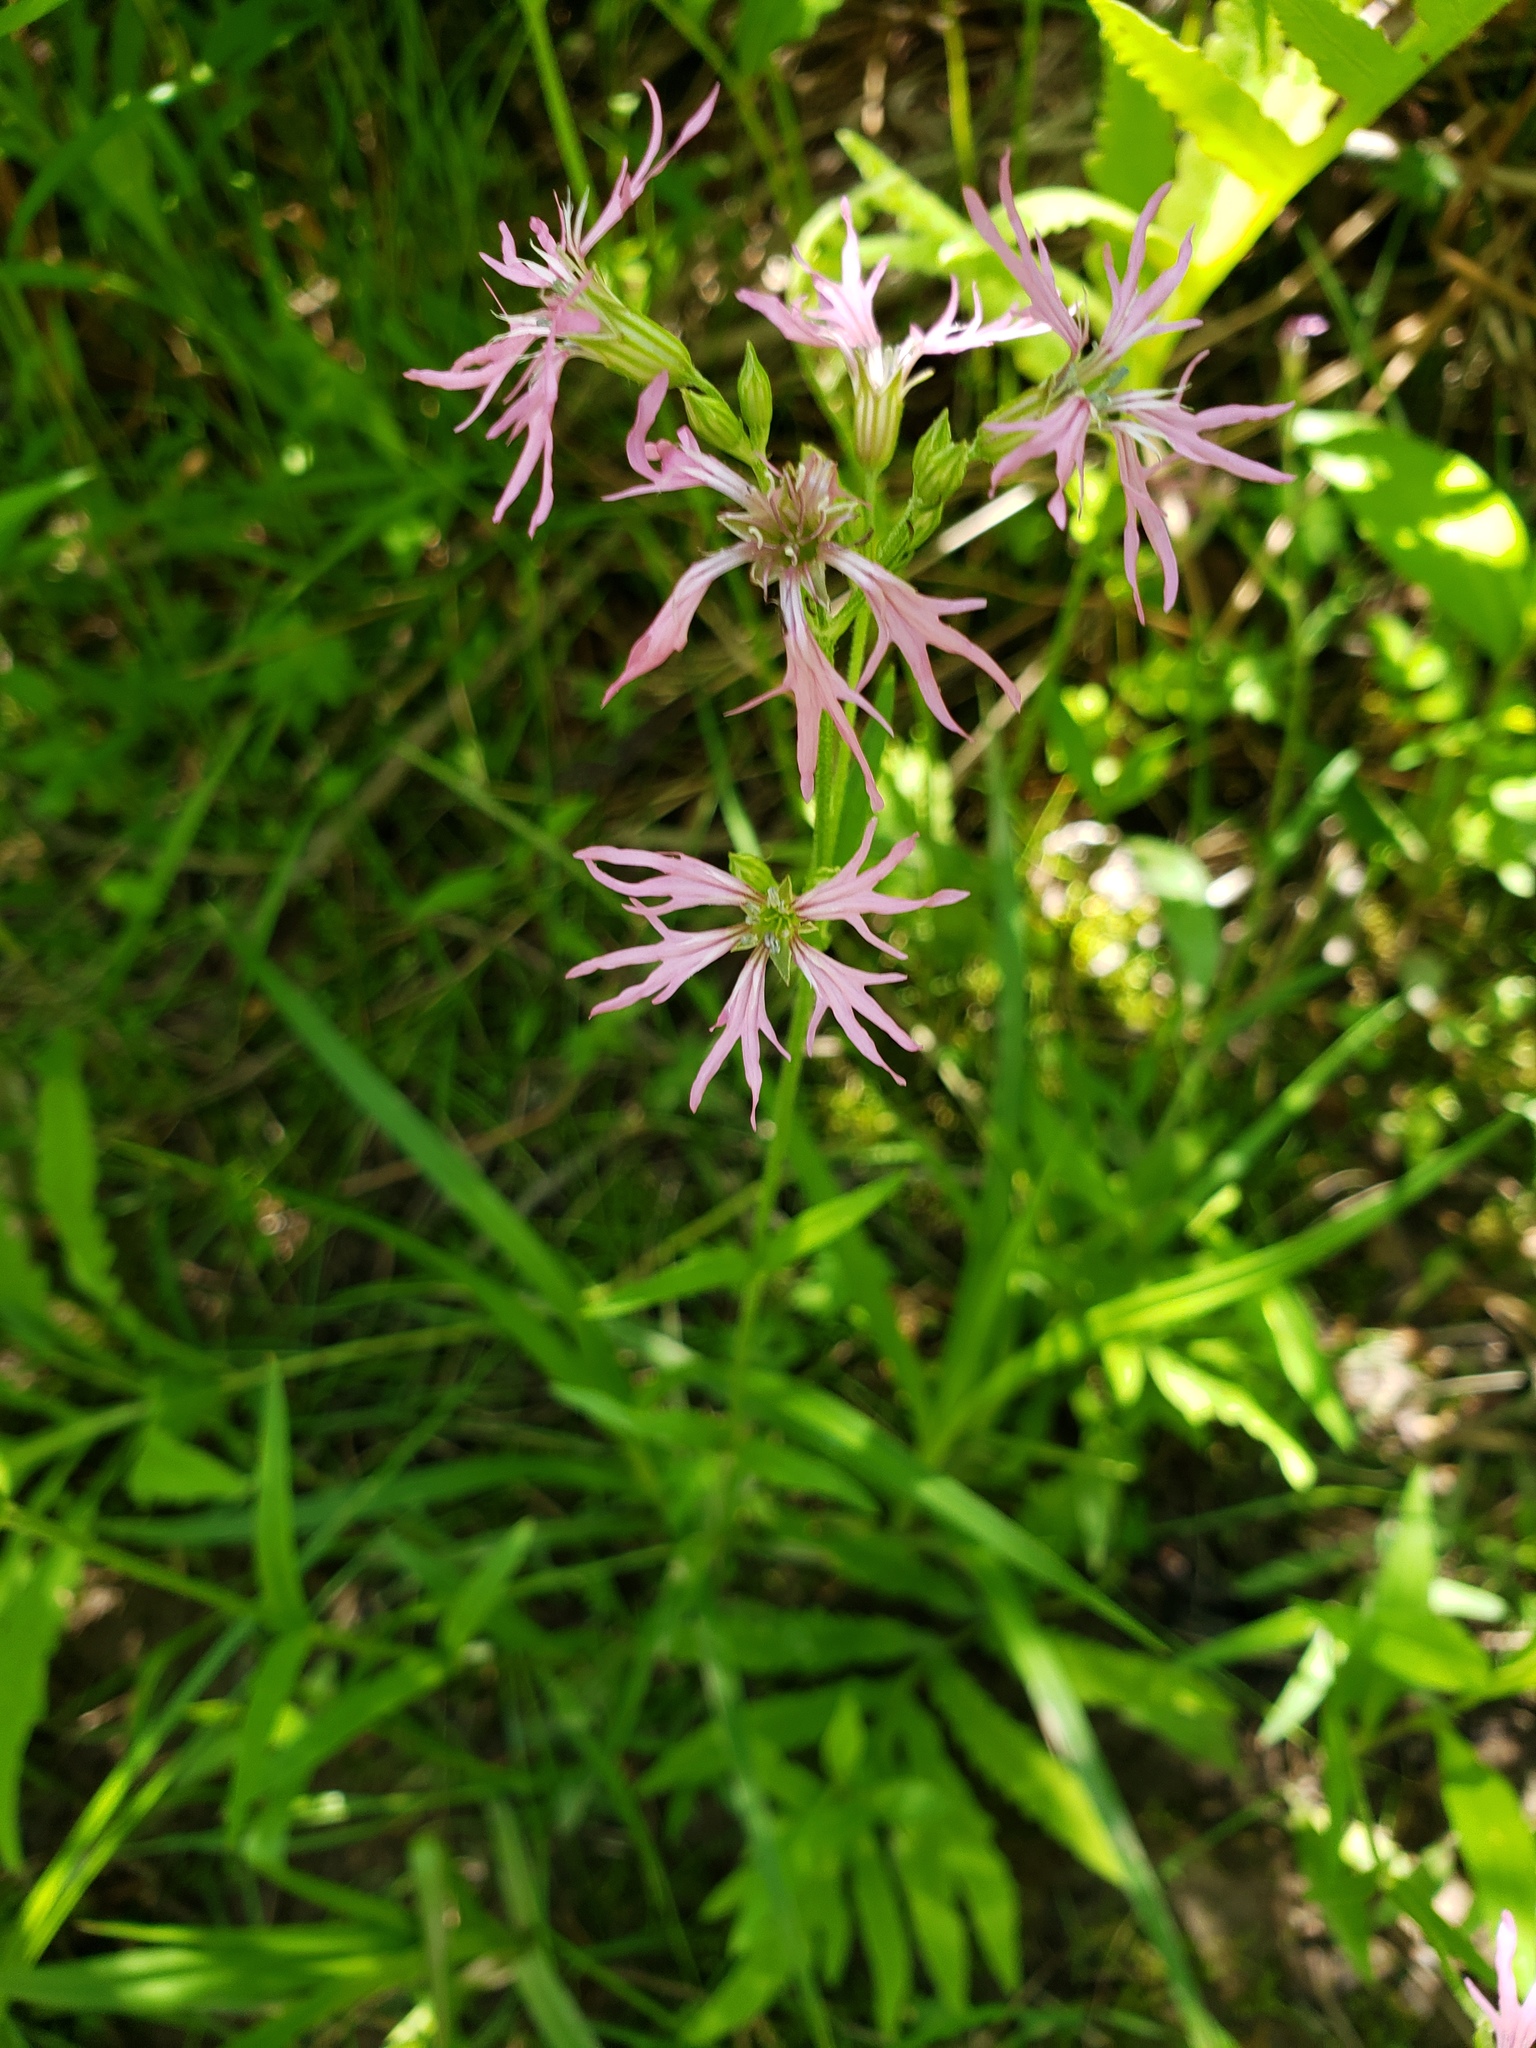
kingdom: Plantae
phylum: Tracheophyta
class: Magnoliopsida
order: Caryophyllales
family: Caryophyllaceae
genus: Silene
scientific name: Silene flos-cuculi
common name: Ragged-robin
